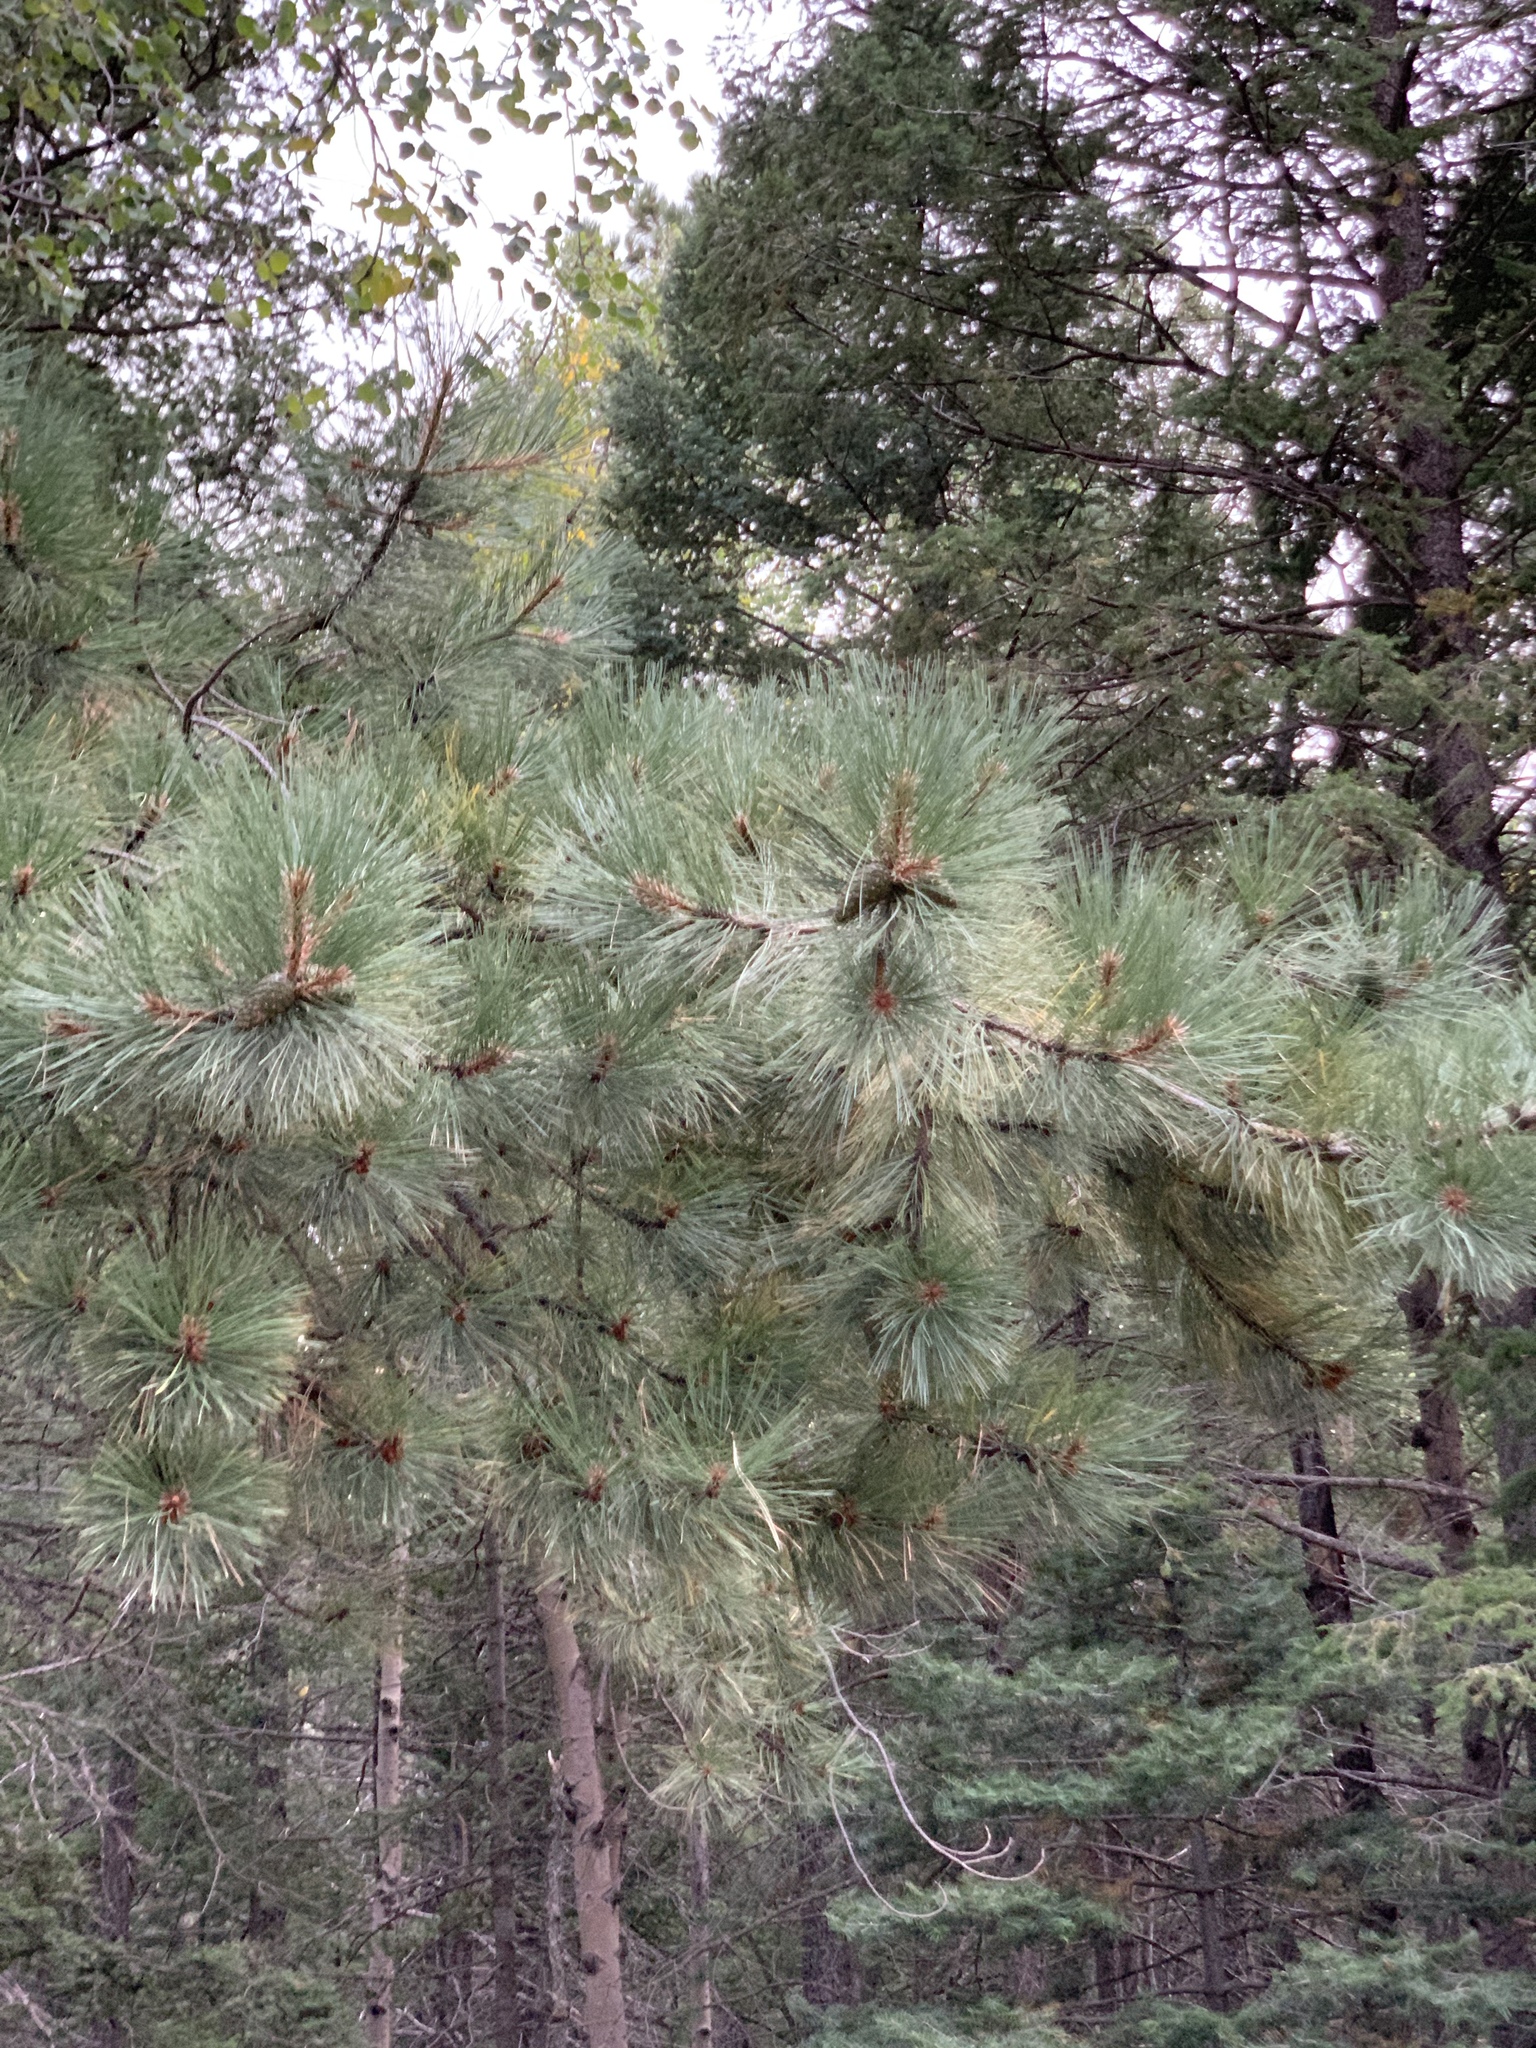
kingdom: Plantae
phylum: Tracheophyta
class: Pinopsida
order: Pinales
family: Pinaceae
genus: Pinus
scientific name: Pinus ponderosa
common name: Western yellow-pine
